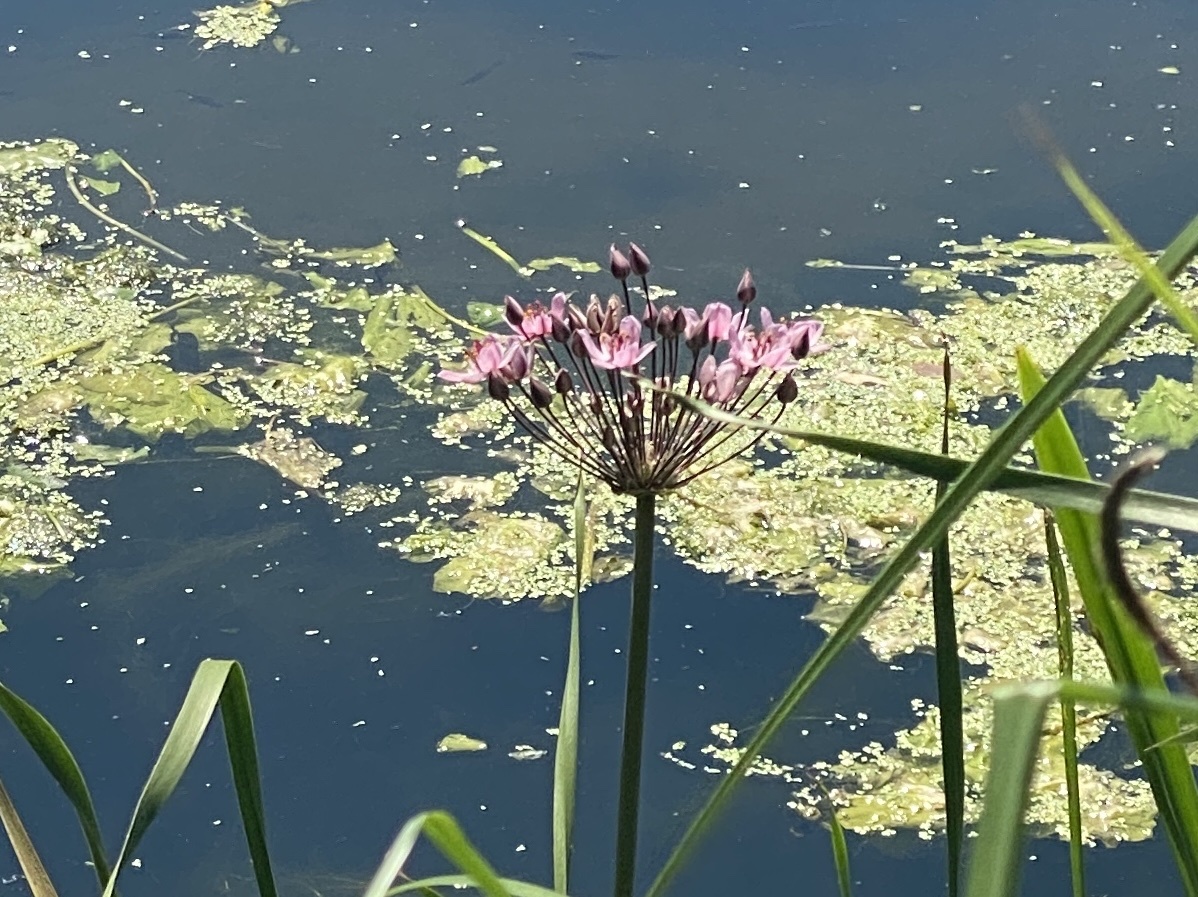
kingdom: Plantae
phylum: Tracheophyta
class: Liliopsida
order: Alismatales
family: Butomaceae
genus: Butomus
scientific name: Butomus umbellatus
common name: Flowering-rush
